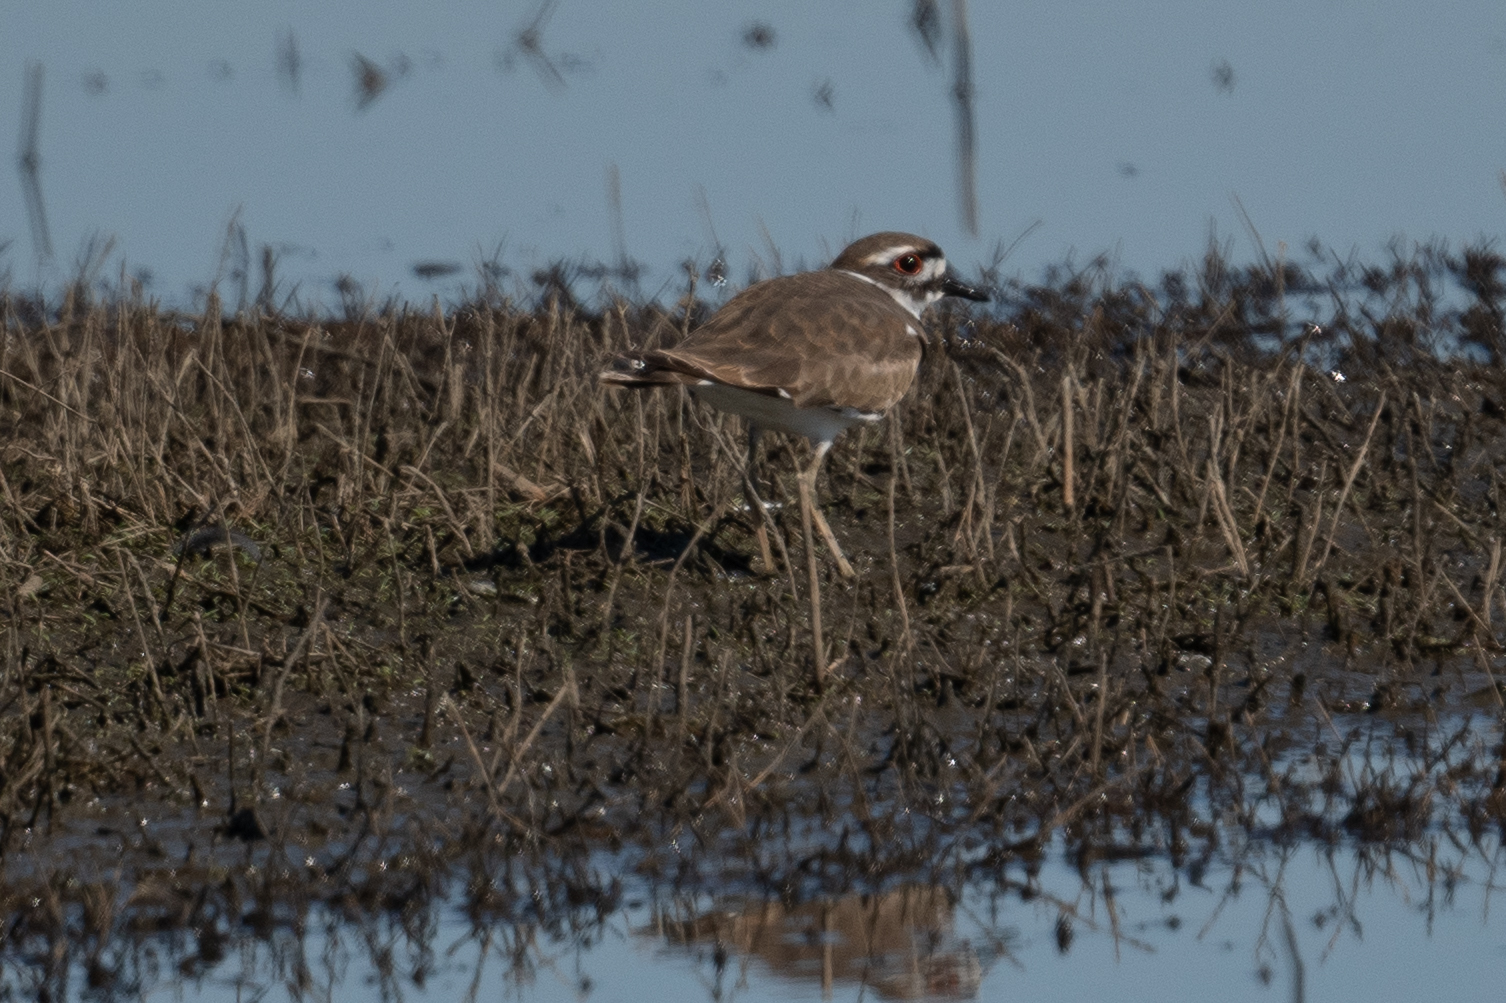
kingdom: Animalia
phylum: Chordata
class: Aves
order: Charadriiformes
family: Charadriidae
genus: Charadrius
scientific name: Charadrius vociferus
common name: Killdeer
